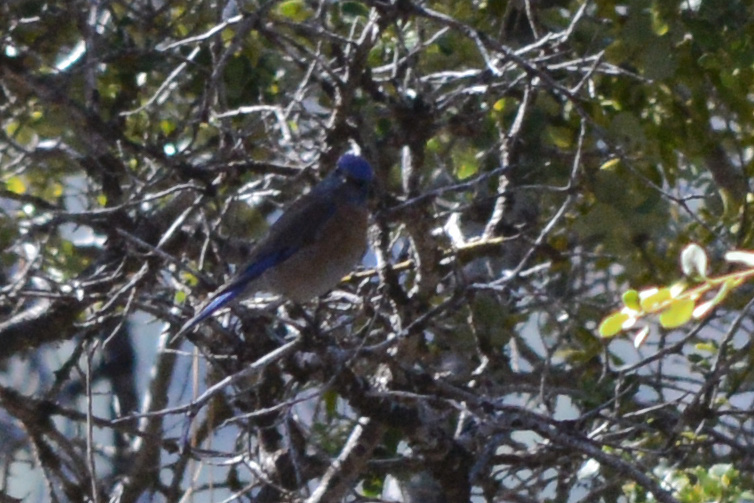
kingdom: Animalia
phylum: Chordata
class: Aves
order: Passeriformes
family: Turdidae
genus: Sialia
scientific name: Sialia mexicana
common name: Western bluebird
